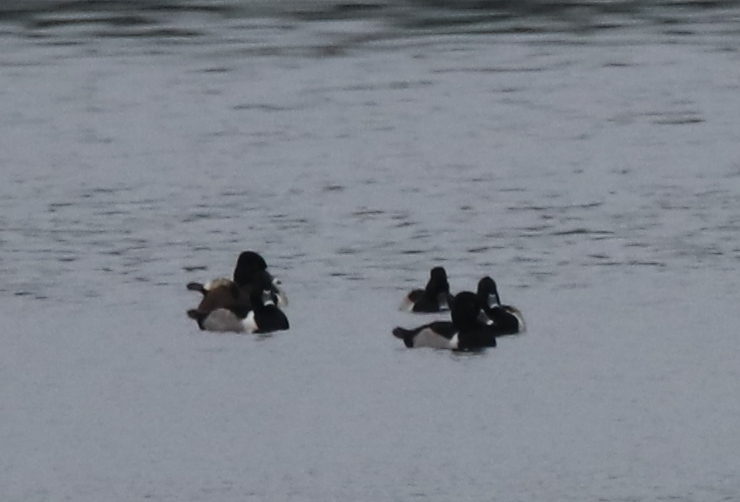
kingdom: Animalia
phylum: Chordata
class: Aves
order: Anseriformes
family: Anatidae
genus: Aythya
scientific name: Aythya collaris
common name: Ring-necked duck
